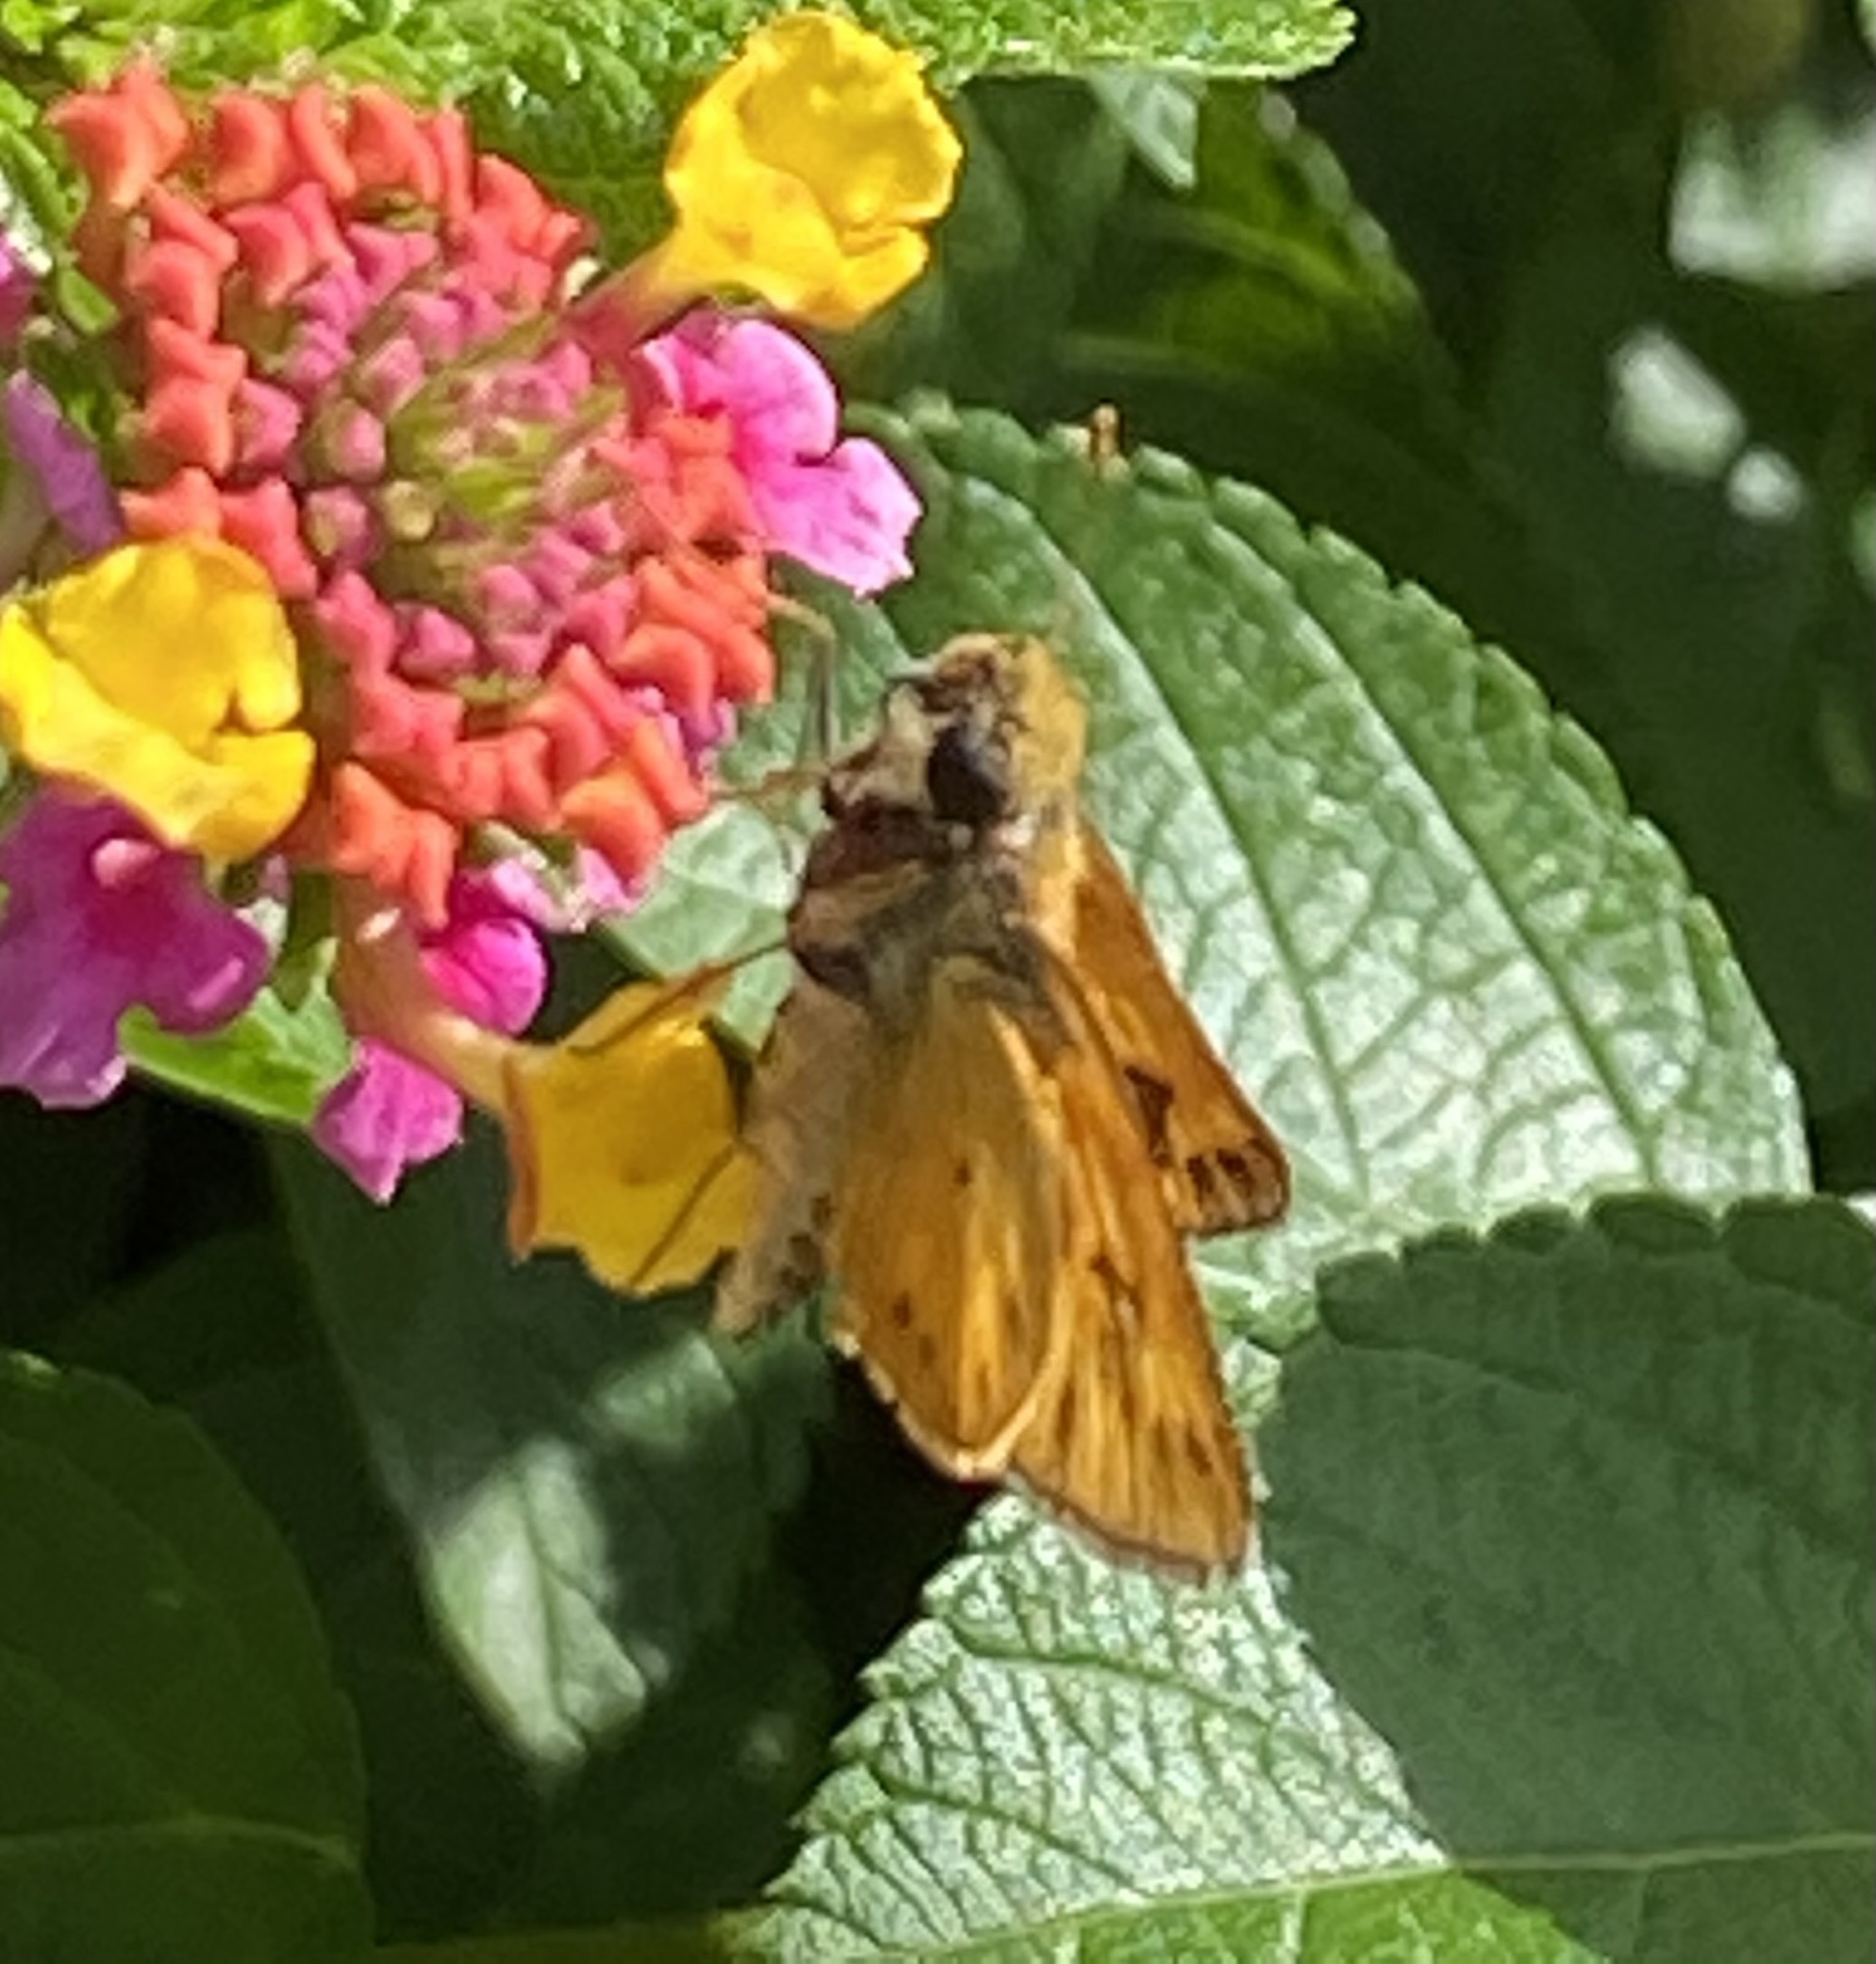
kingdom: Animalia
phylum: Arthropoda
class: Insecta
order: Lepidoptera
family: Hesperiidae
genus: Hylephila
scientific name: Hylephila phyleus
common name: Fiery skipper
